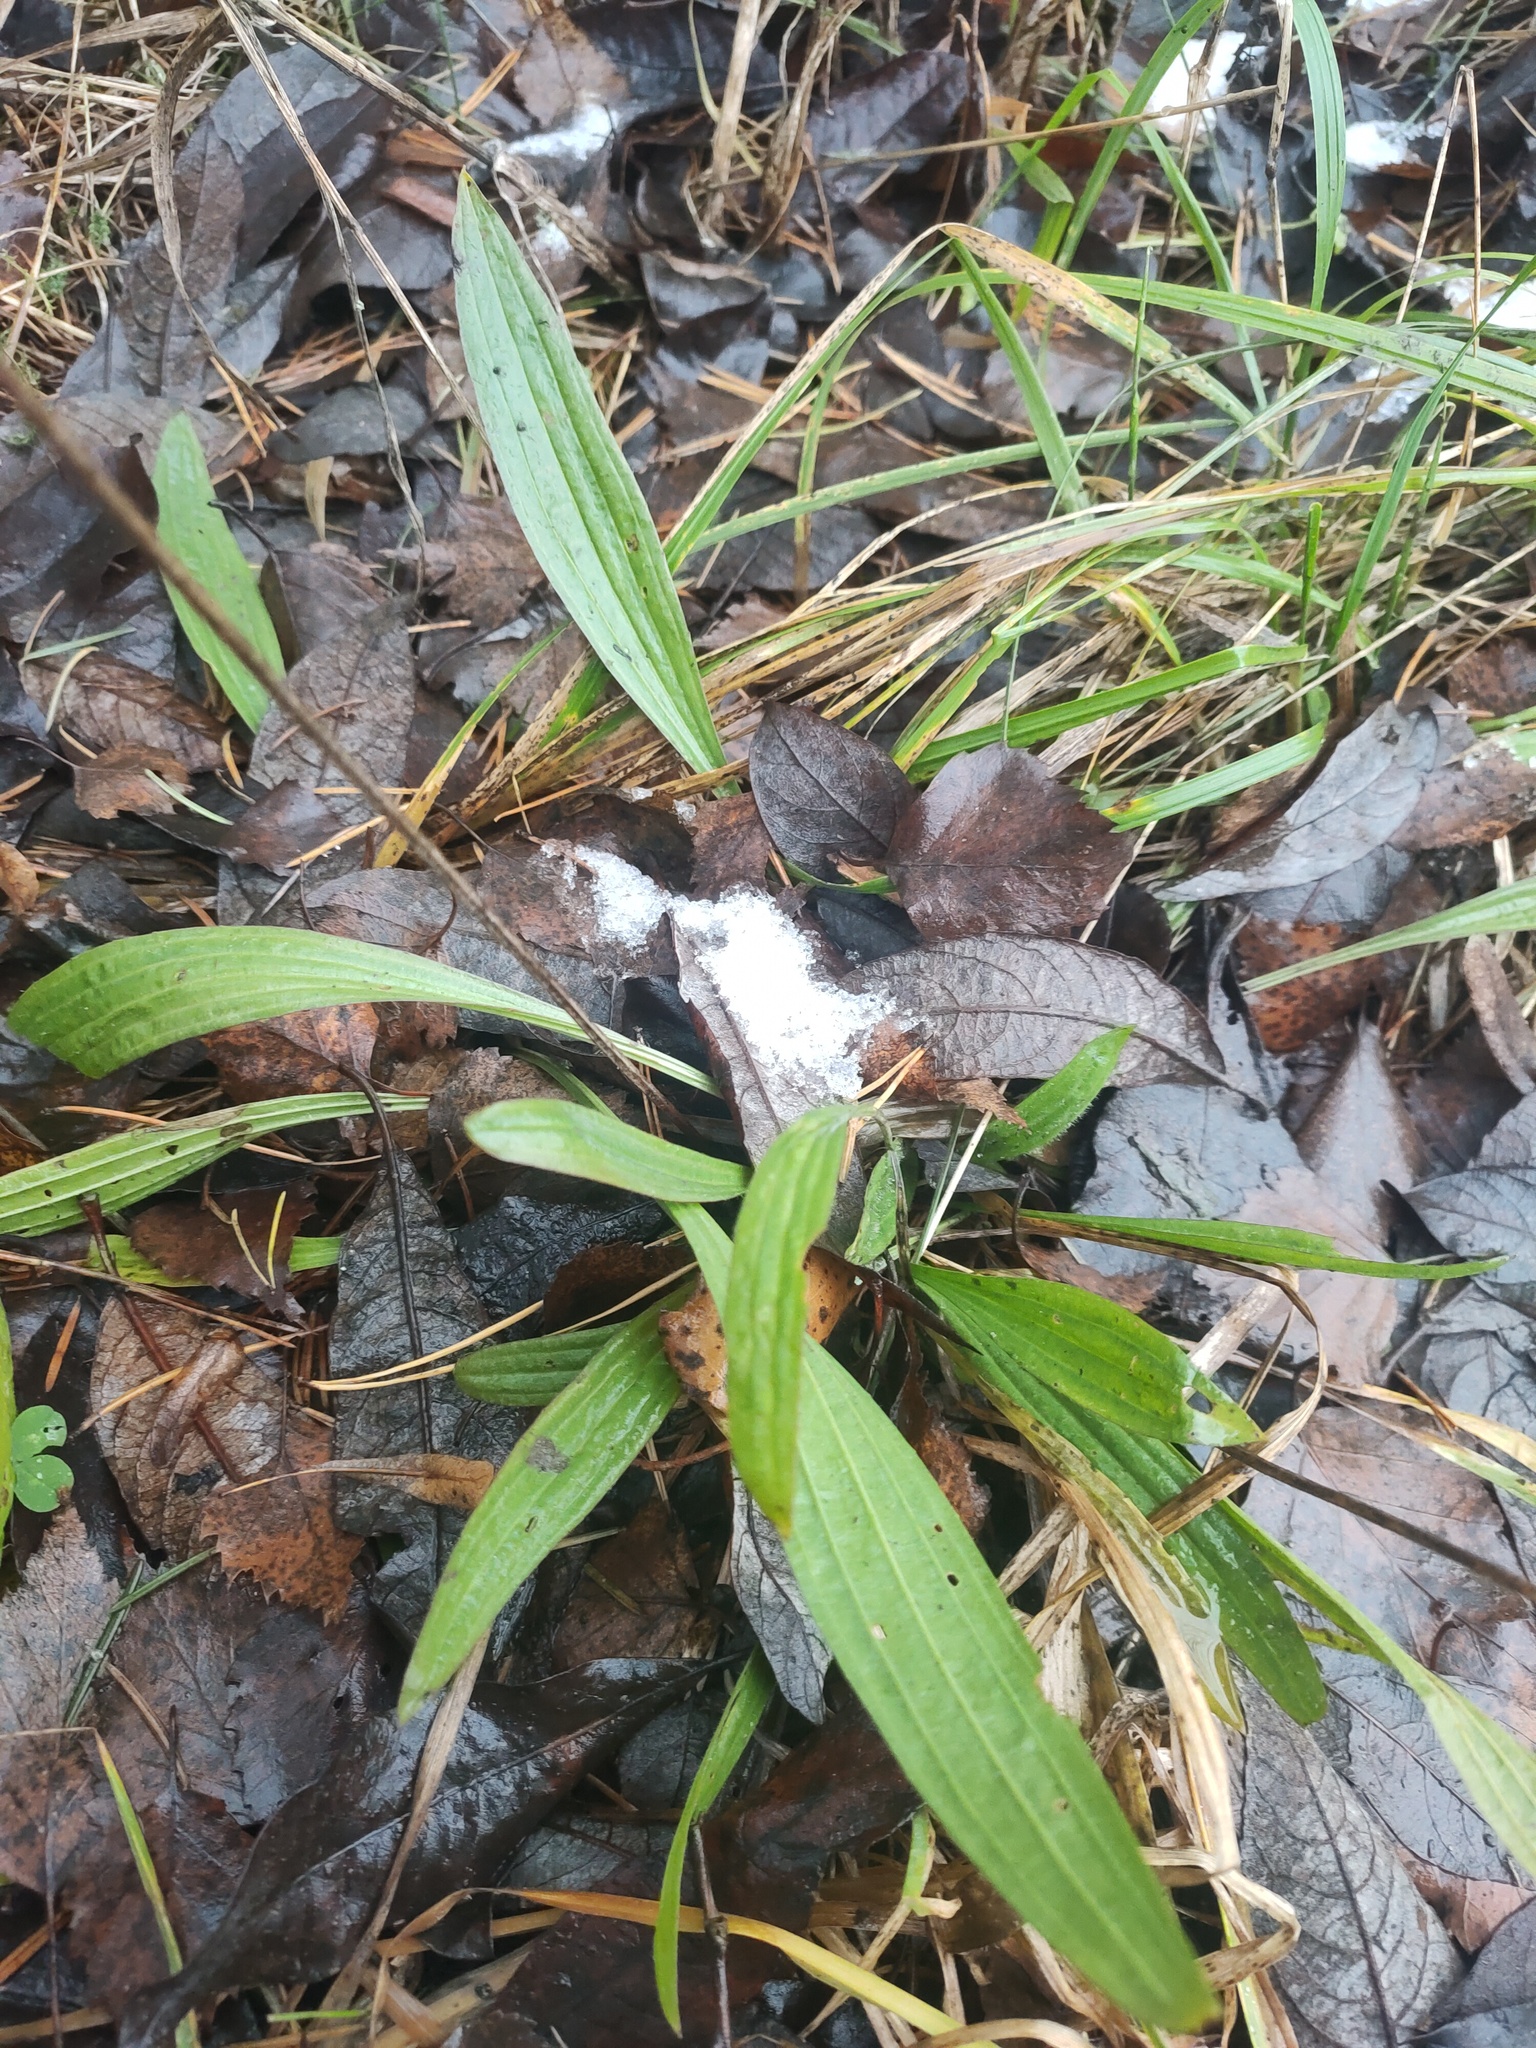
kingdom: Plantae
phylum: Tracheophyta
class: Magnoliopsida
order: Lamiales
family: Plantaginaceae
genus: Plantago
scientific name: Plantago lanceolata
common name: Ribwort plantain
